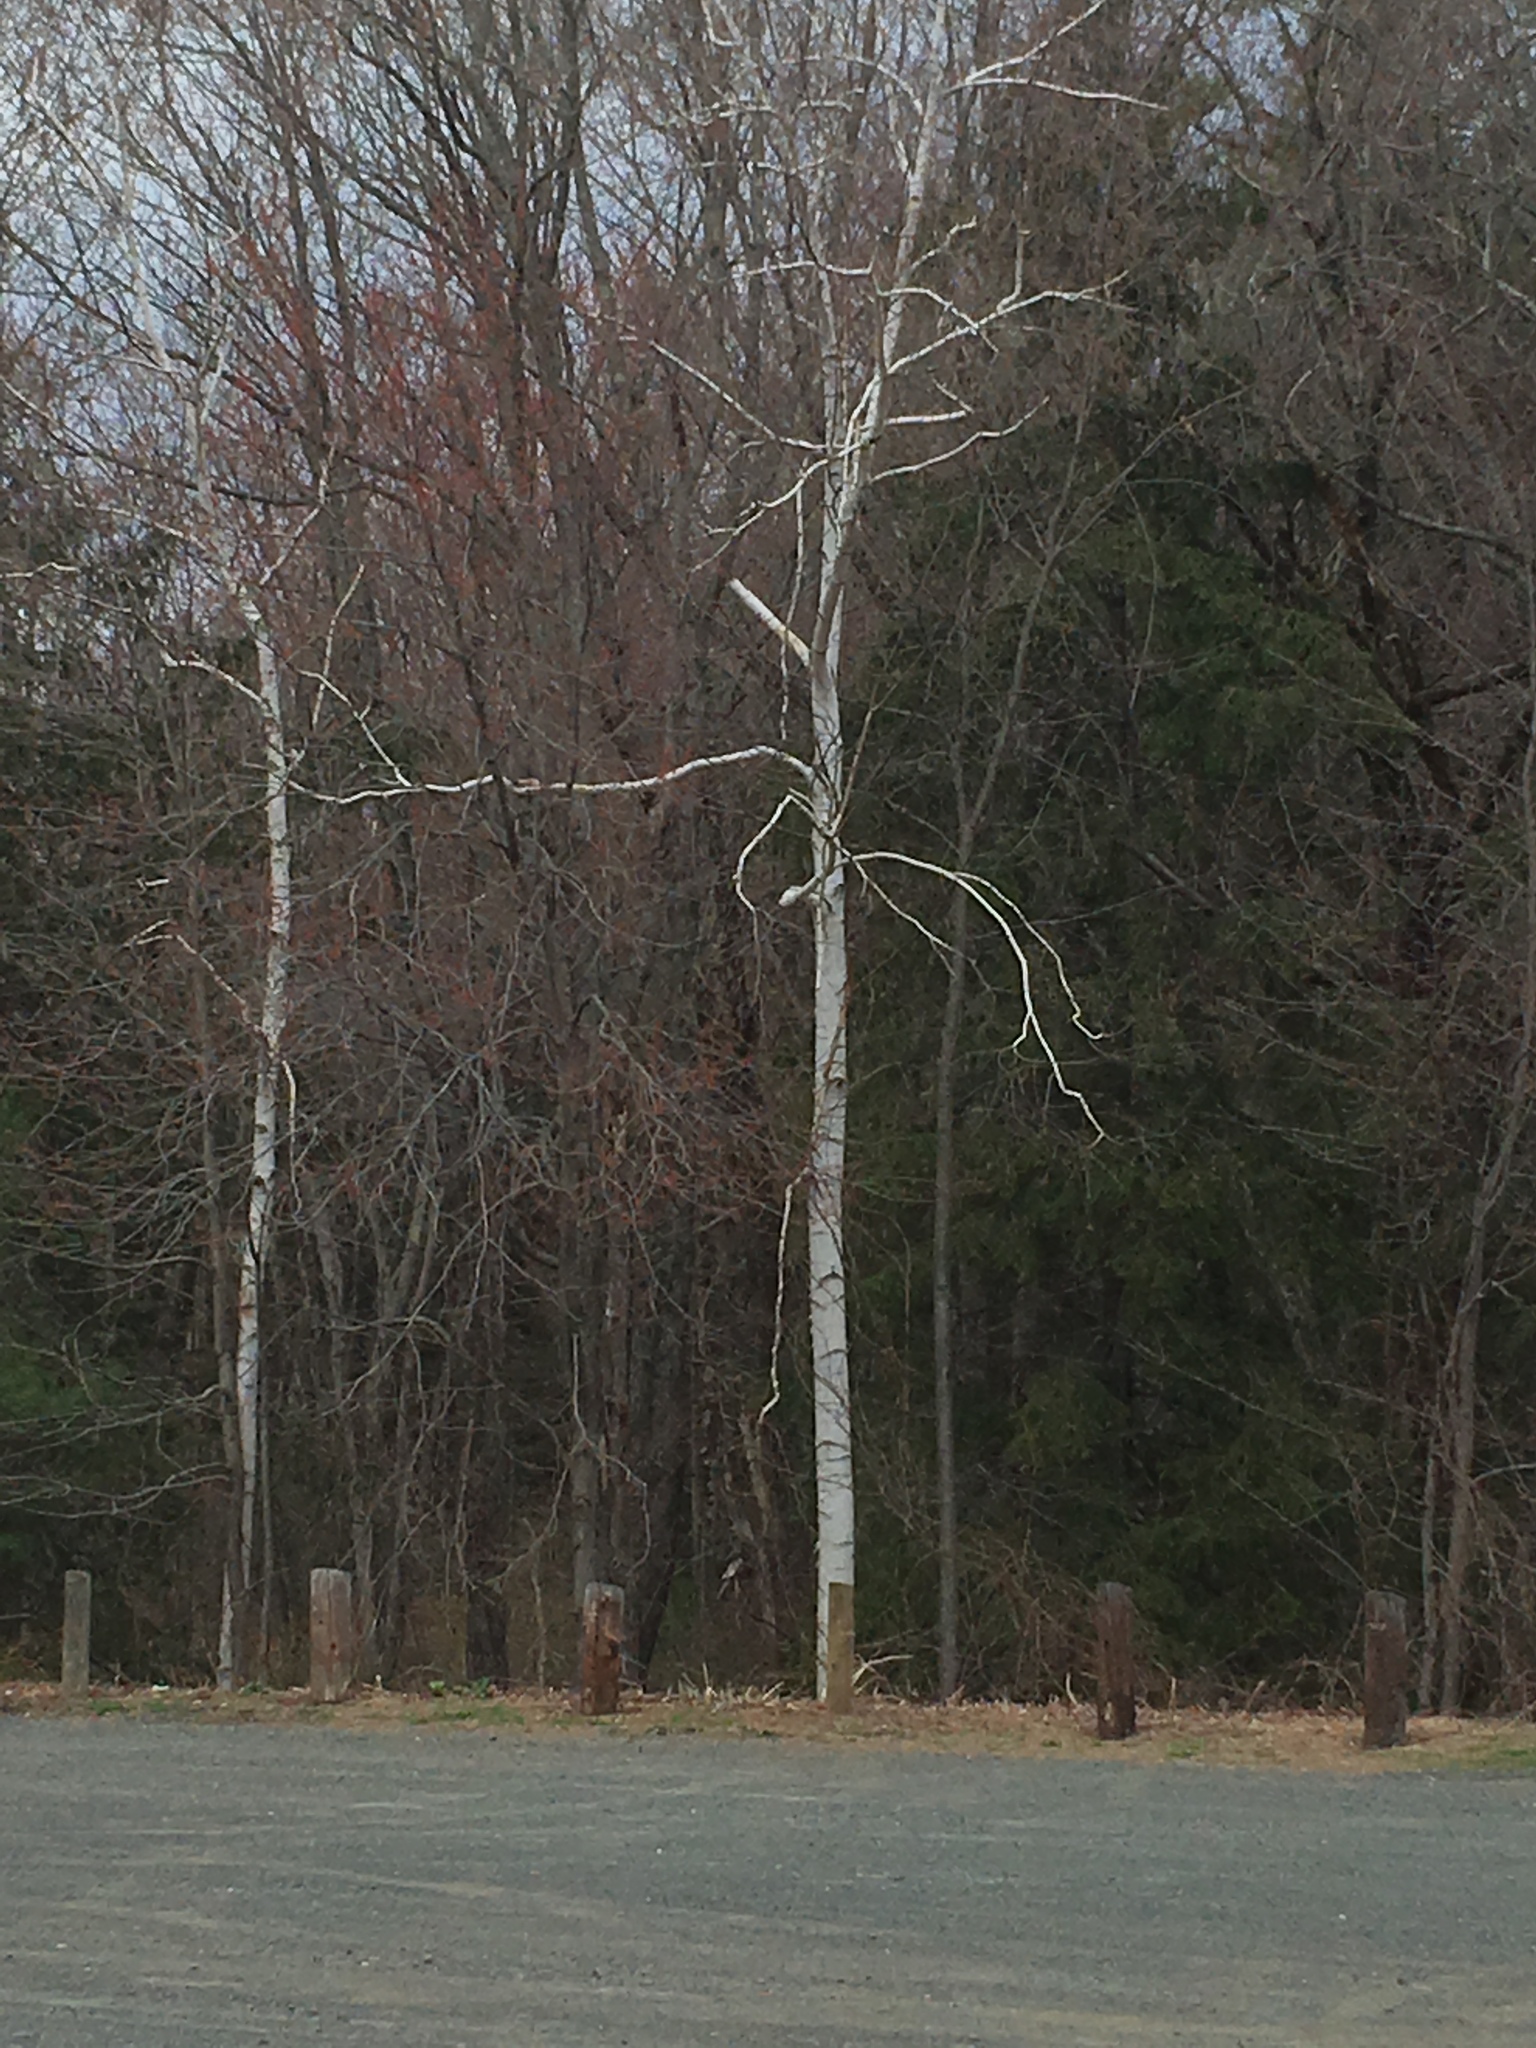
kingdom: Plantae
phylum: Tracheophyta
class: Magnoliopsida
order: Fagales
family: Betulaceae
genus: Betula
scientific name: Betula papyrifera
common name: Paper birch
